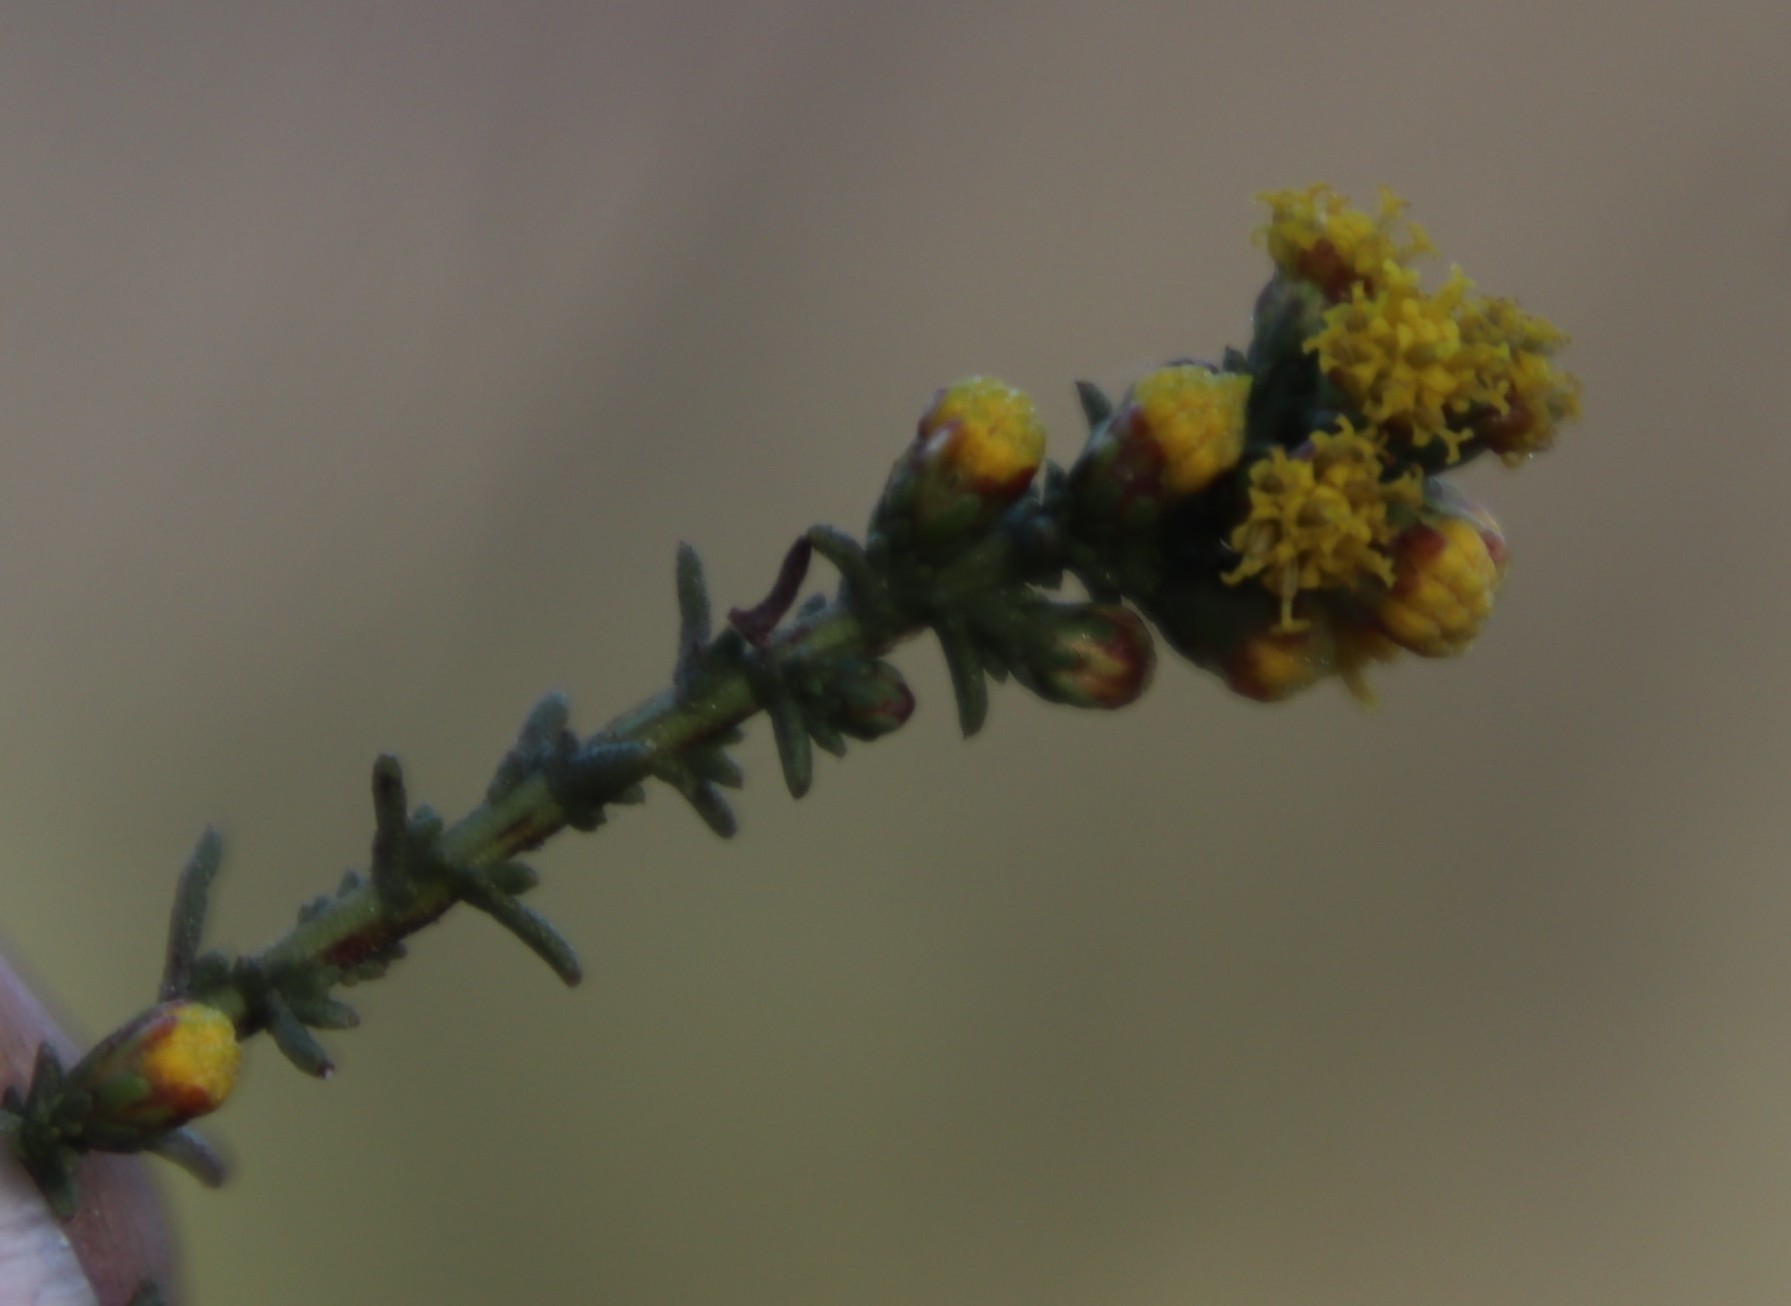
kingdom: Plantae
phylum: Tracheophyta
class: Magnoliopsida
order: Asterales
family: Asteraceae
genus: Marasmodes
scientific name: Marasmodes fasciculata
